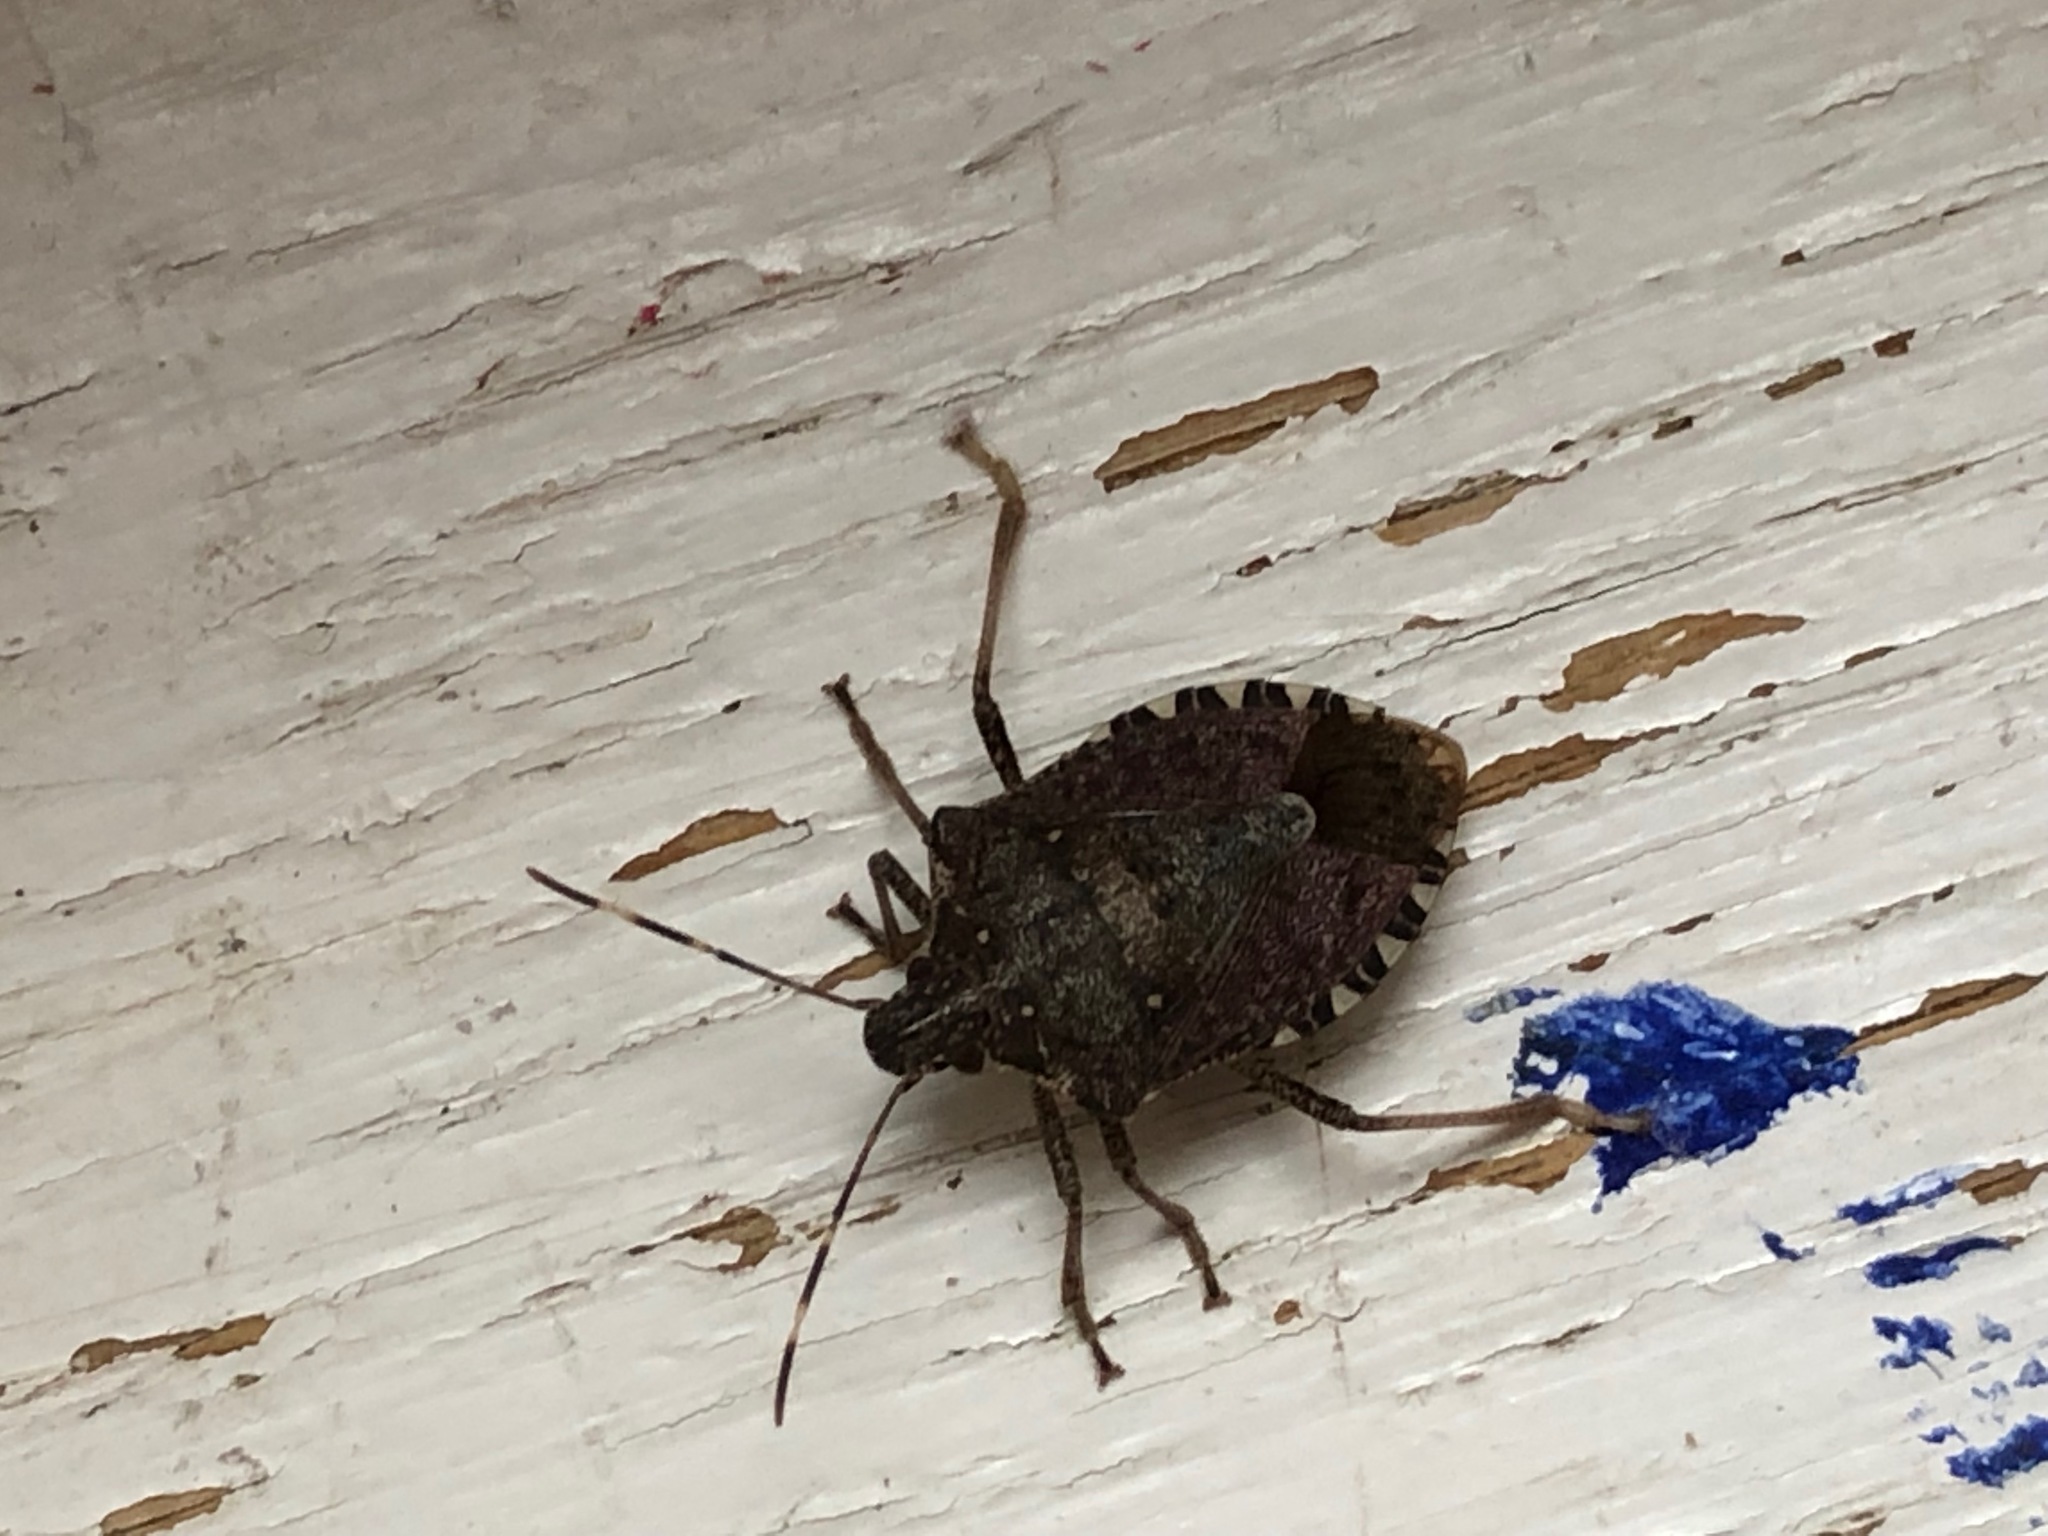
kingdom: Animalia
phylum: Arthropoda
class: Insecta
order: Hemiptera
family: Pentatomidae
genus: Halyomorpha
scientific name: Halyomorpha halys
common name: Brown marmorated stink bug
